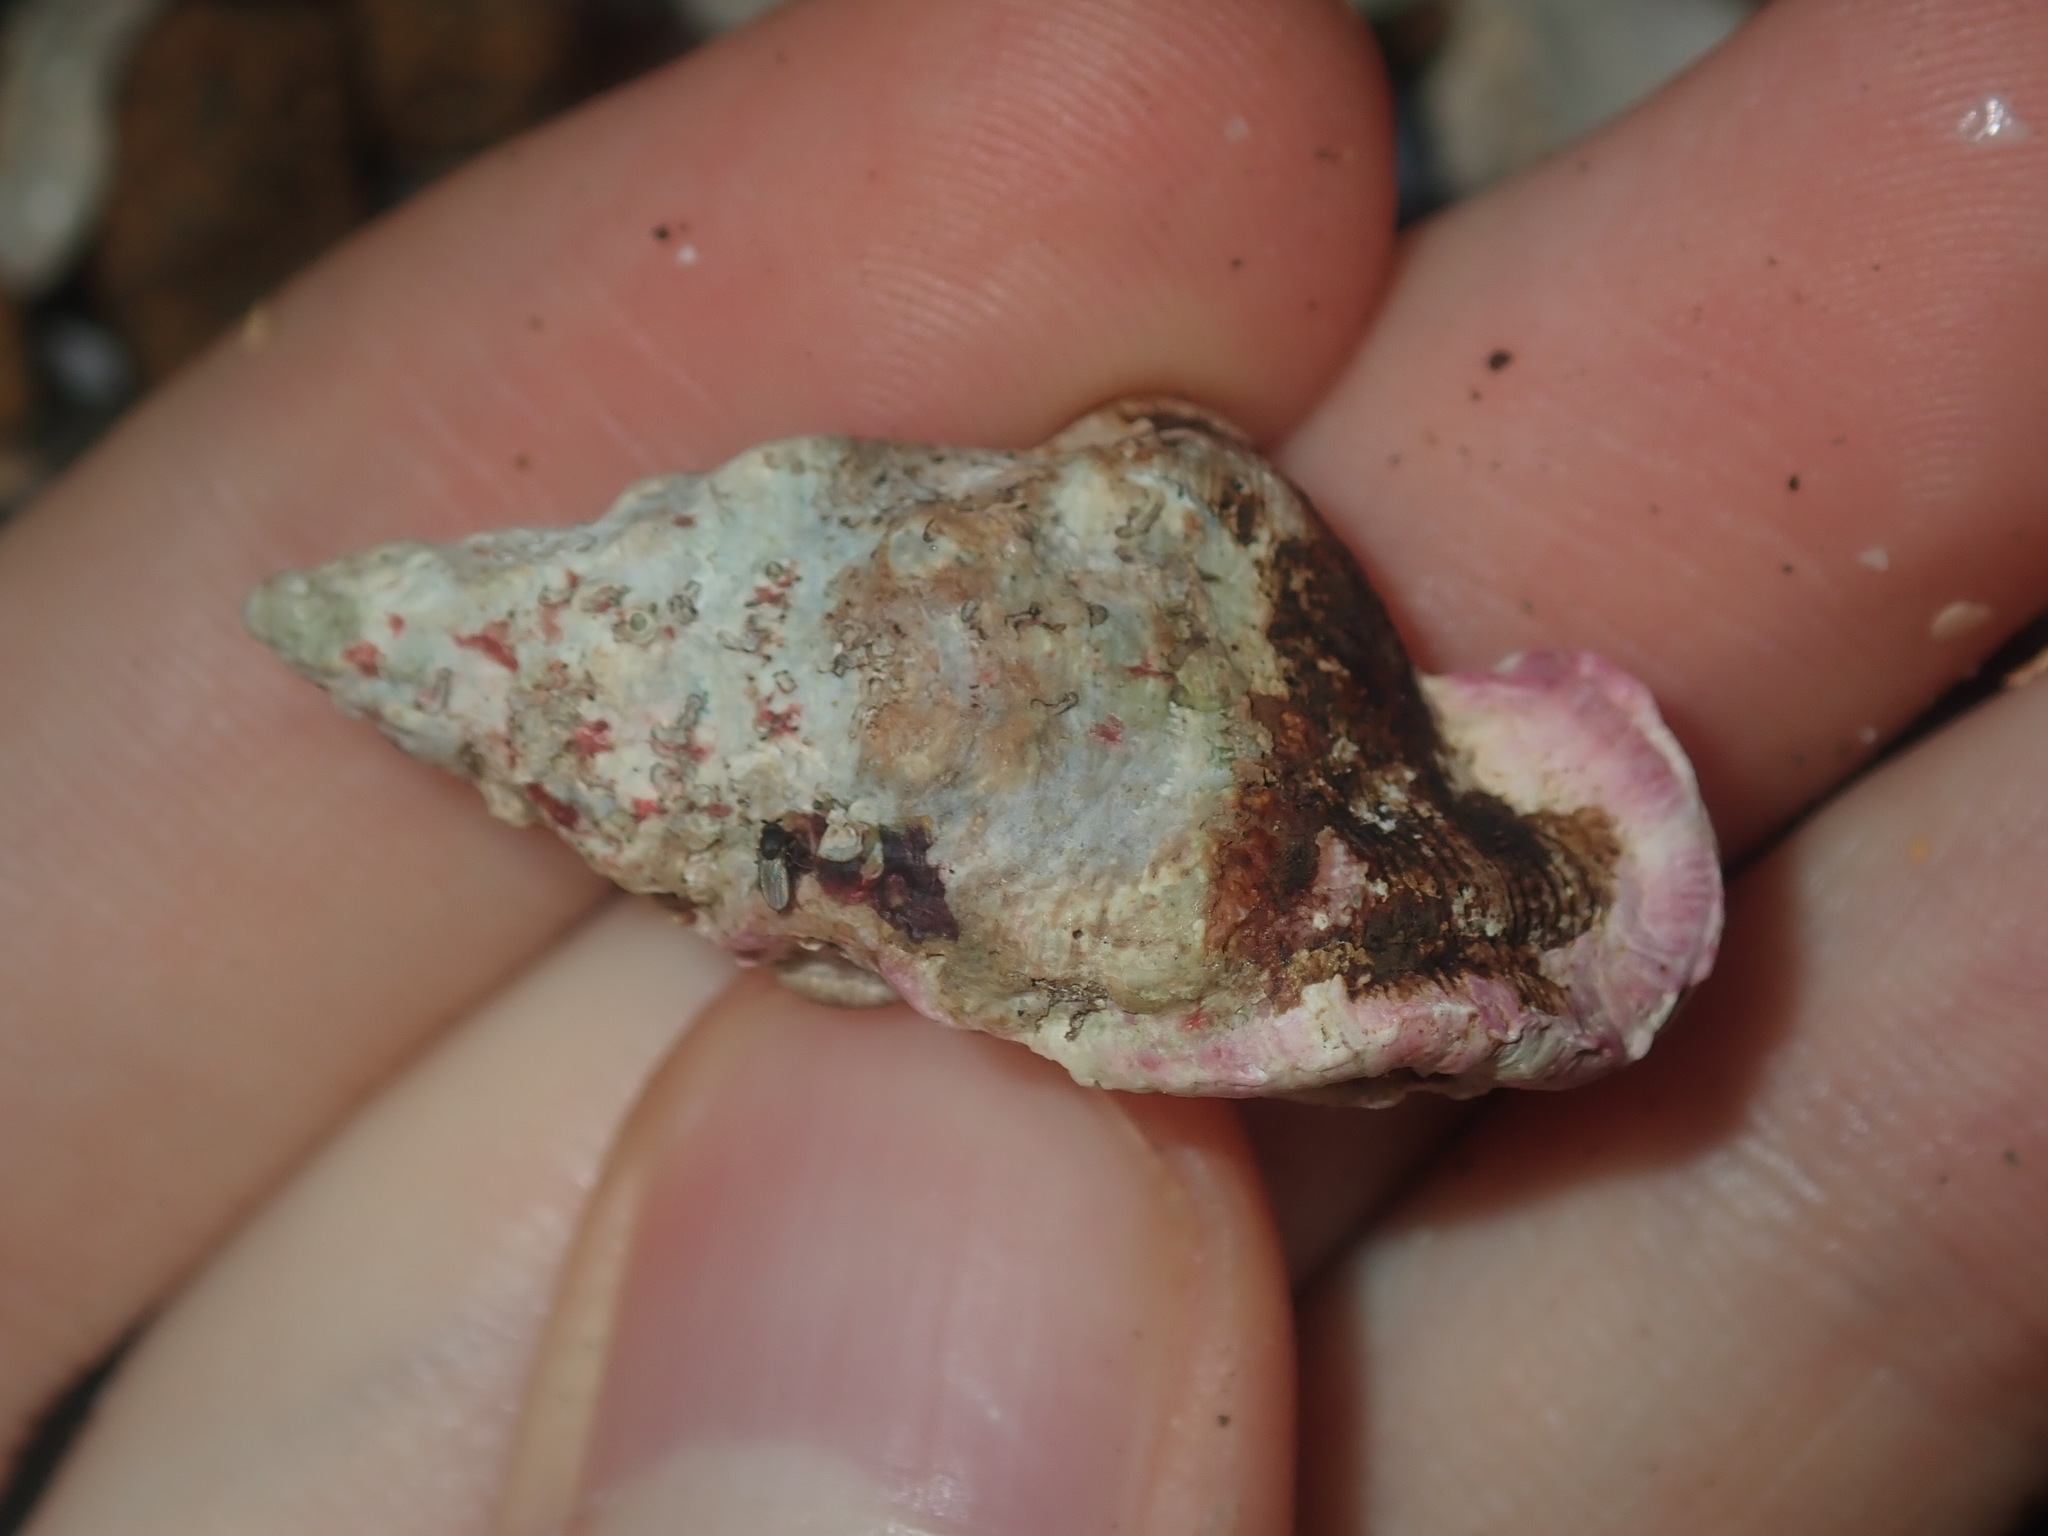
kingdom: Animalia
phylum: Mollusca
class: Gastropoda
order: Littorinimorpha
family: Cymatiidae
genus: Austrosassia
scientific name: Austrosassia parkinsonia
